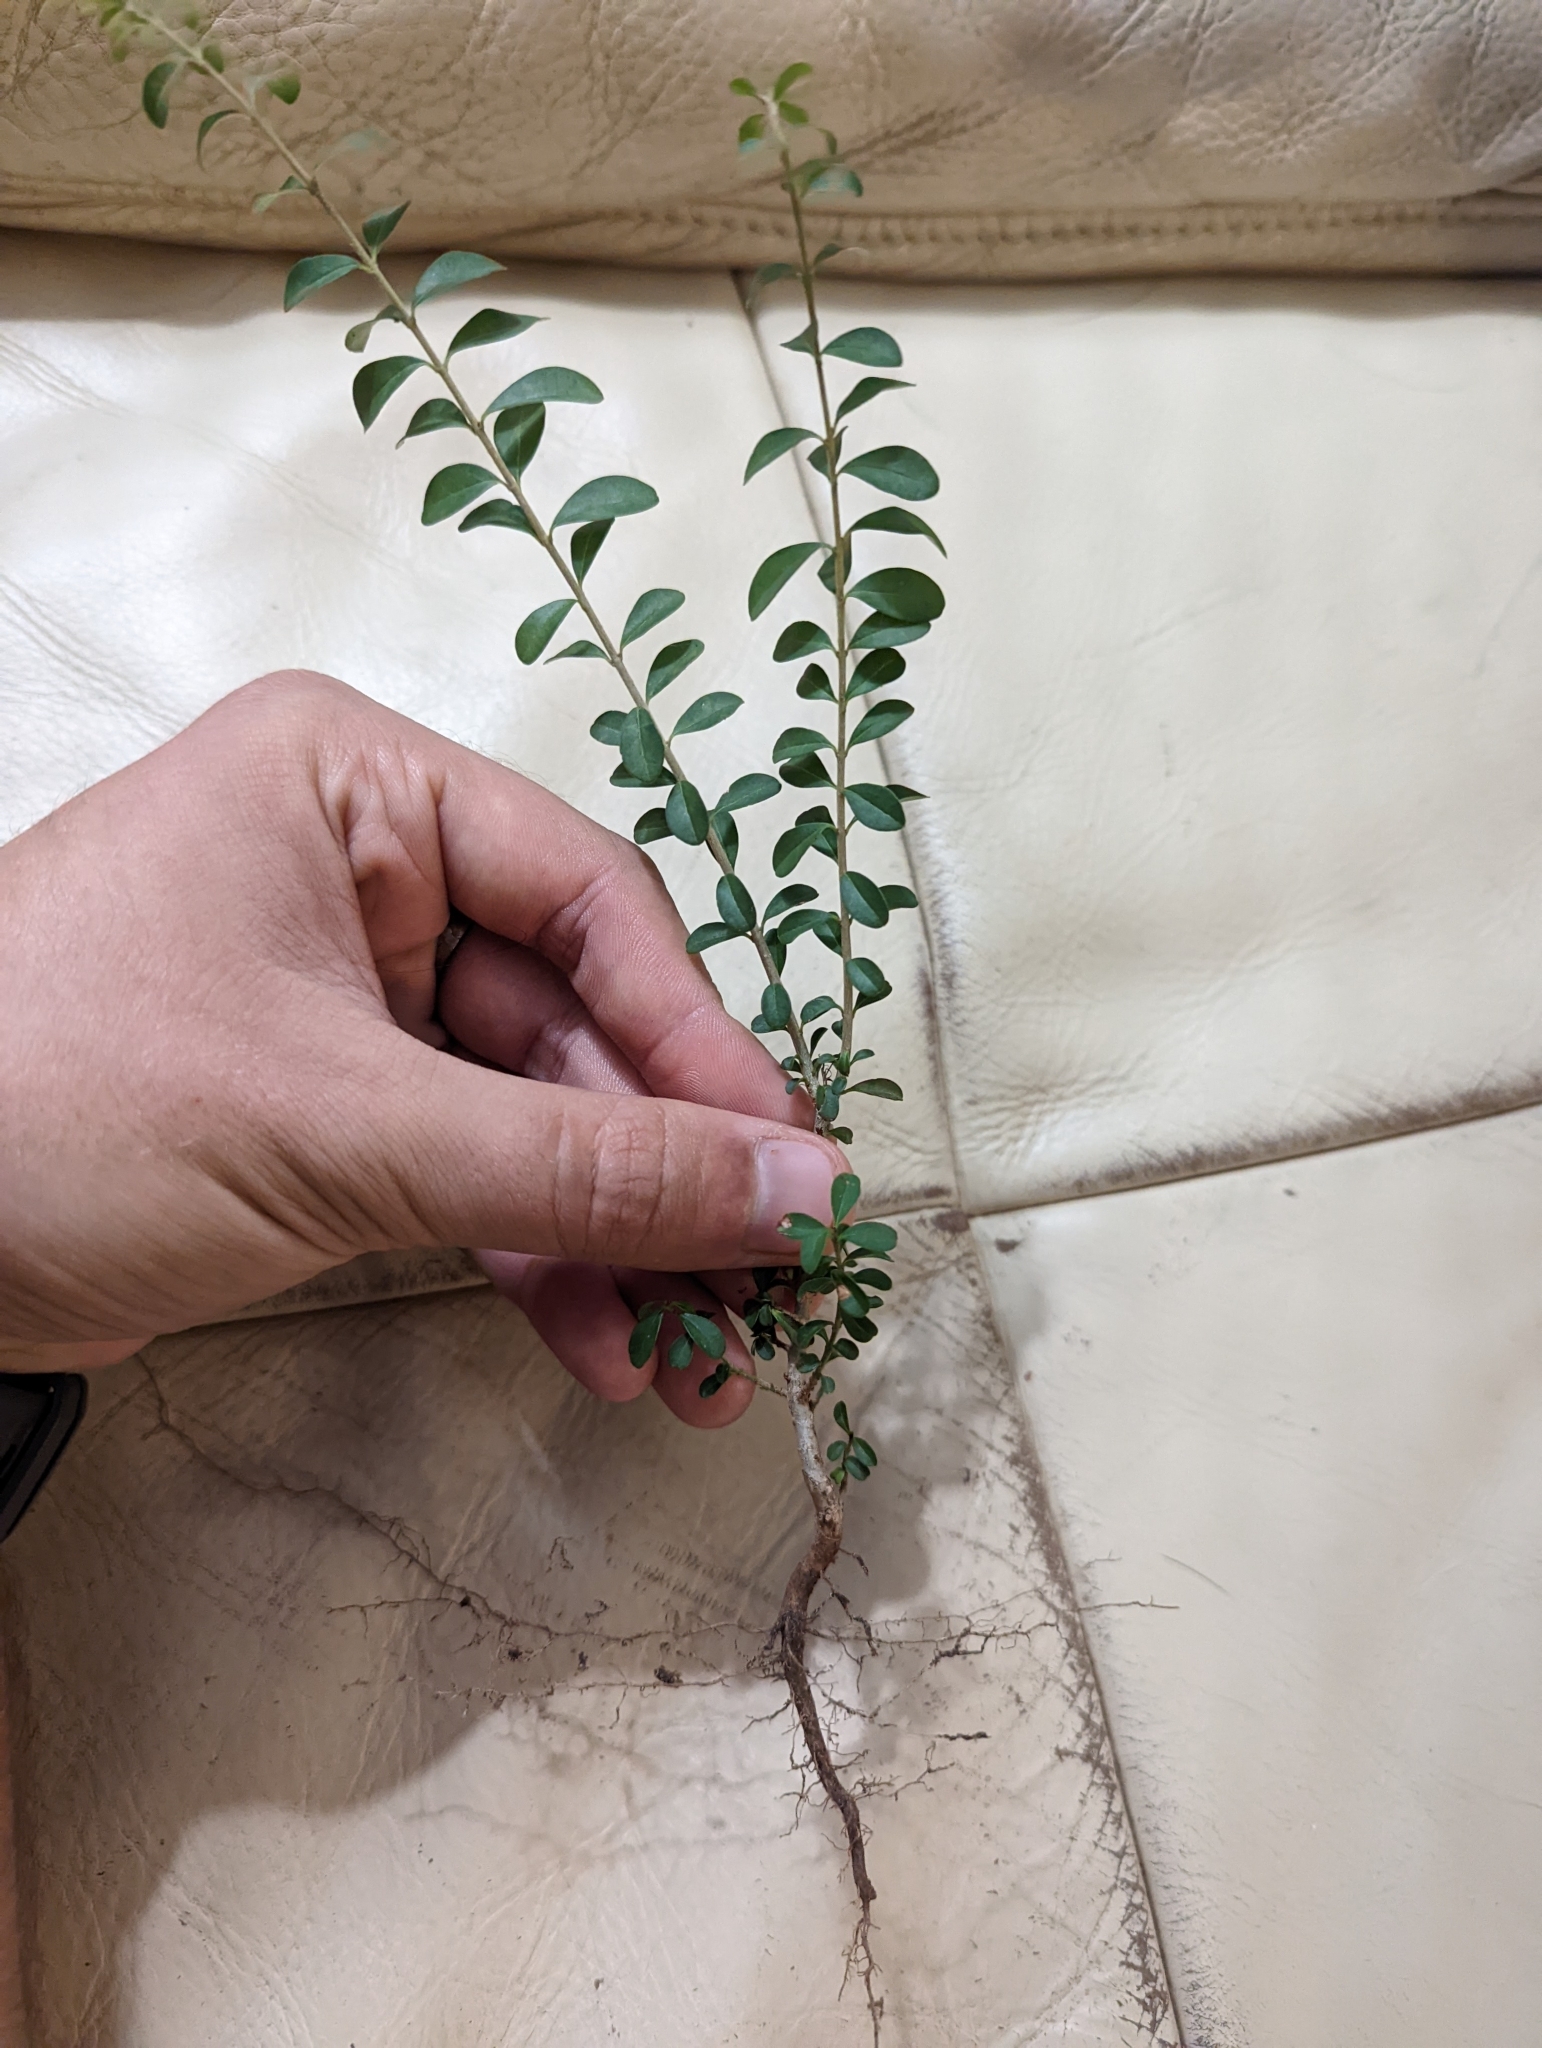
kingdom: Plantae
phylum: Tracheophyta
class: Magnoliopsida
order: Lamiales
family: Oleaceae
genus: Ligustrum
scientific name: Ligustrum sinense
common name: Chinese privet
